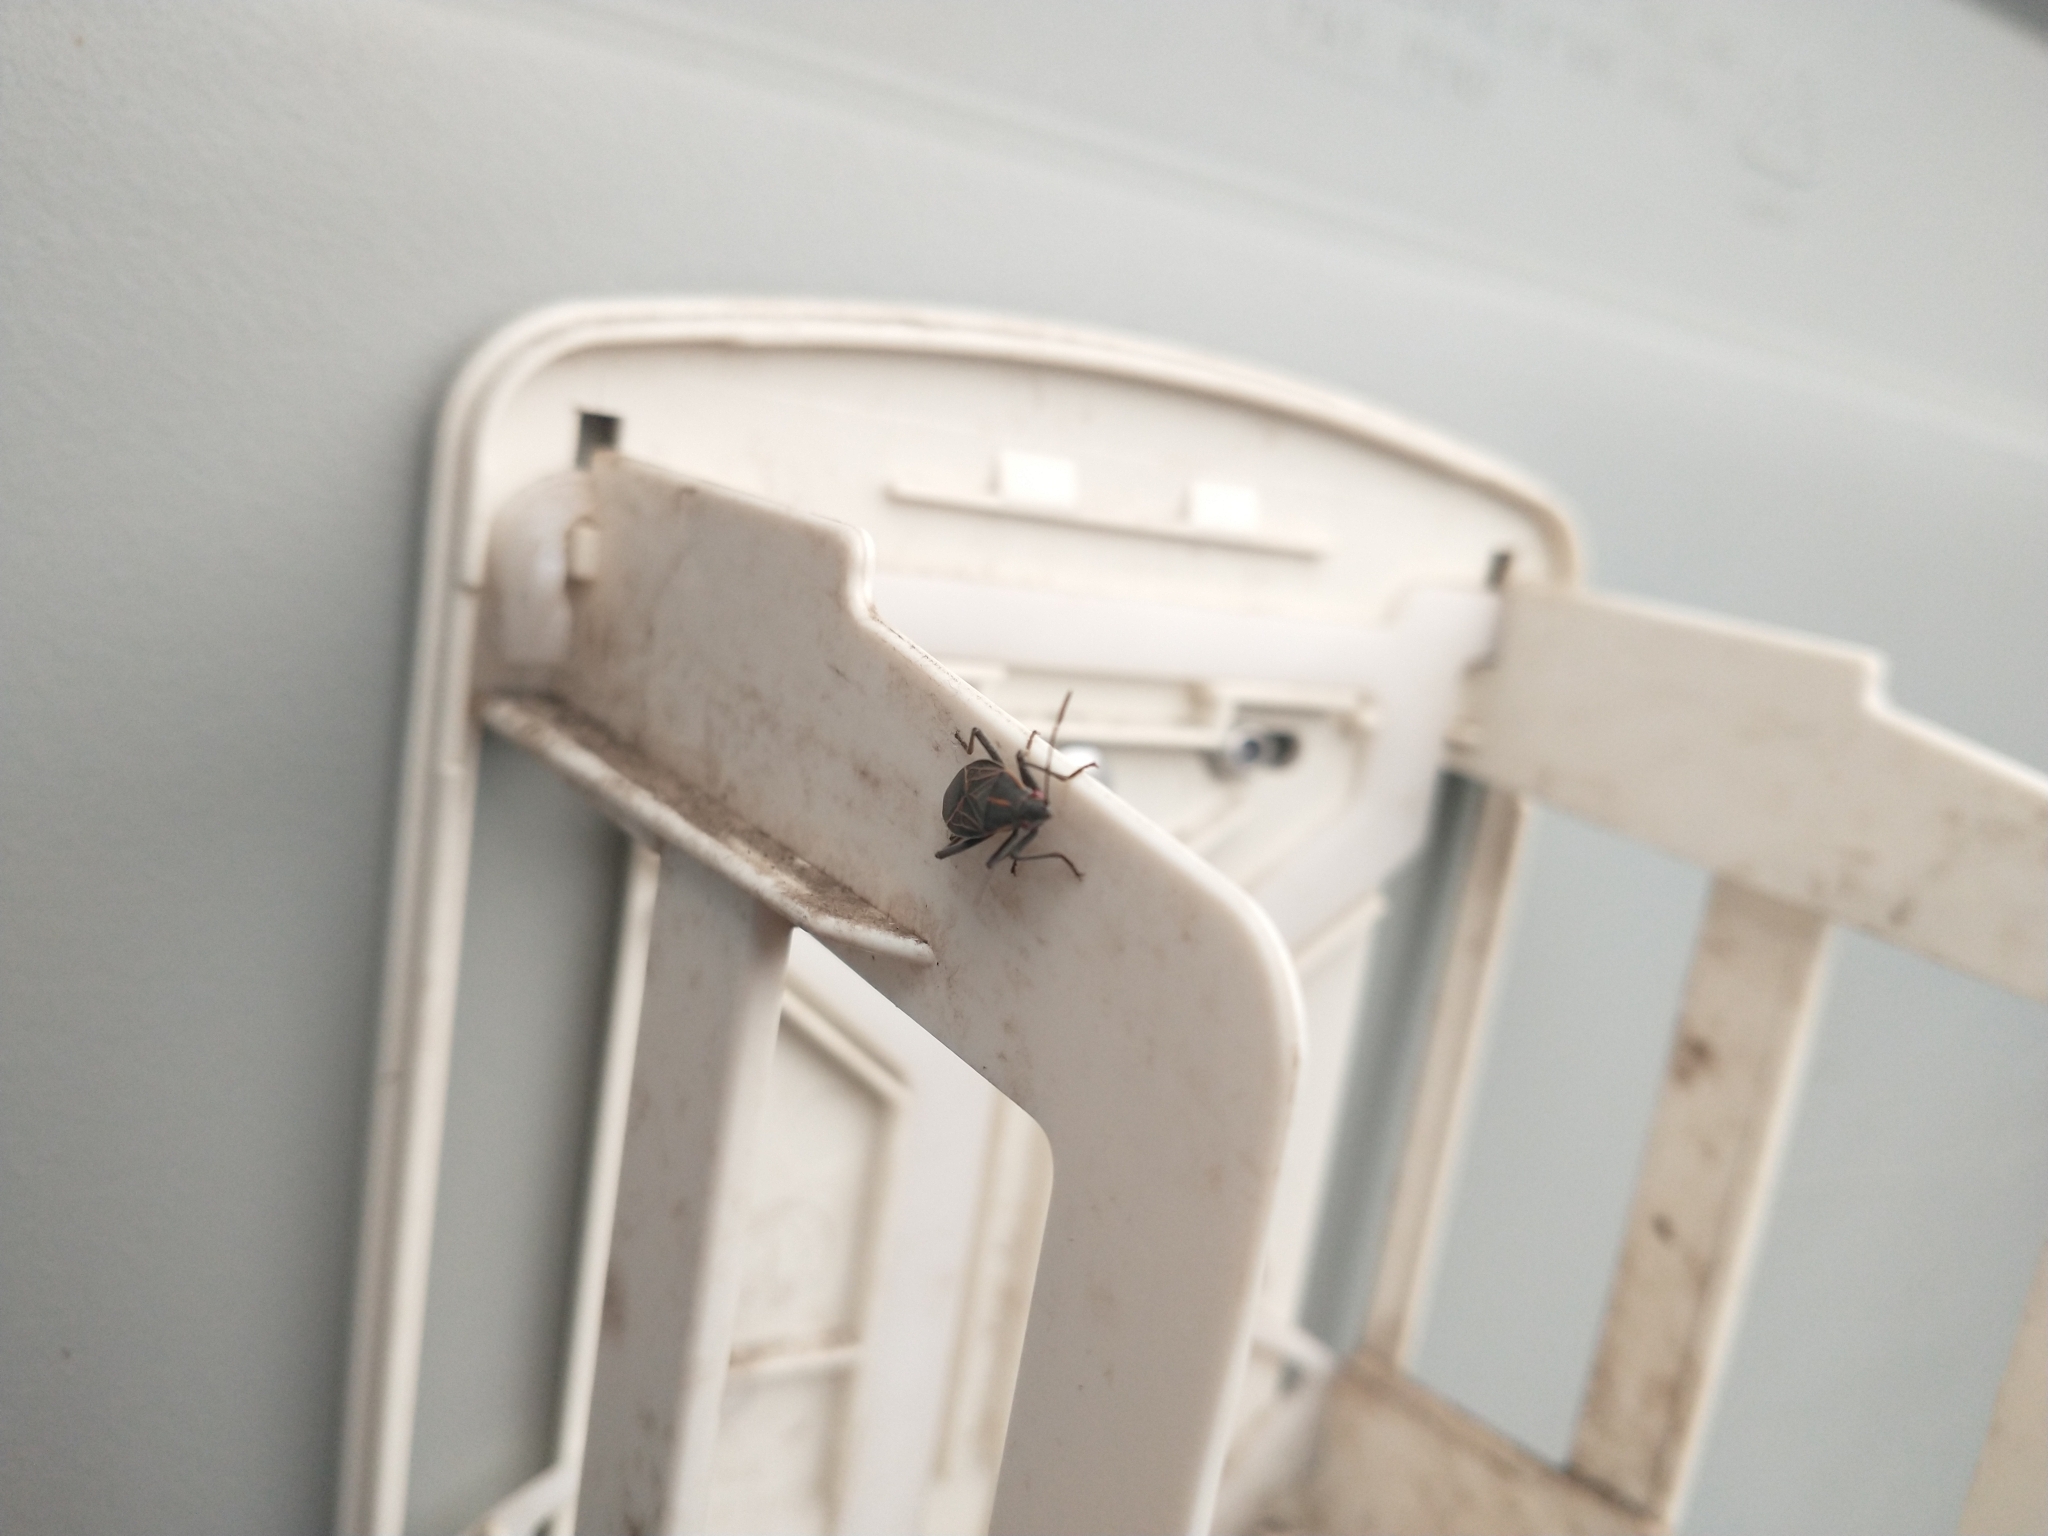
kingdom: Animalia
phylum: Arthropoda
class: Insecta
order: Hemiptera
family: Rhopalidae
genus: Boisea
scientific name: Boisea rubrolineata
